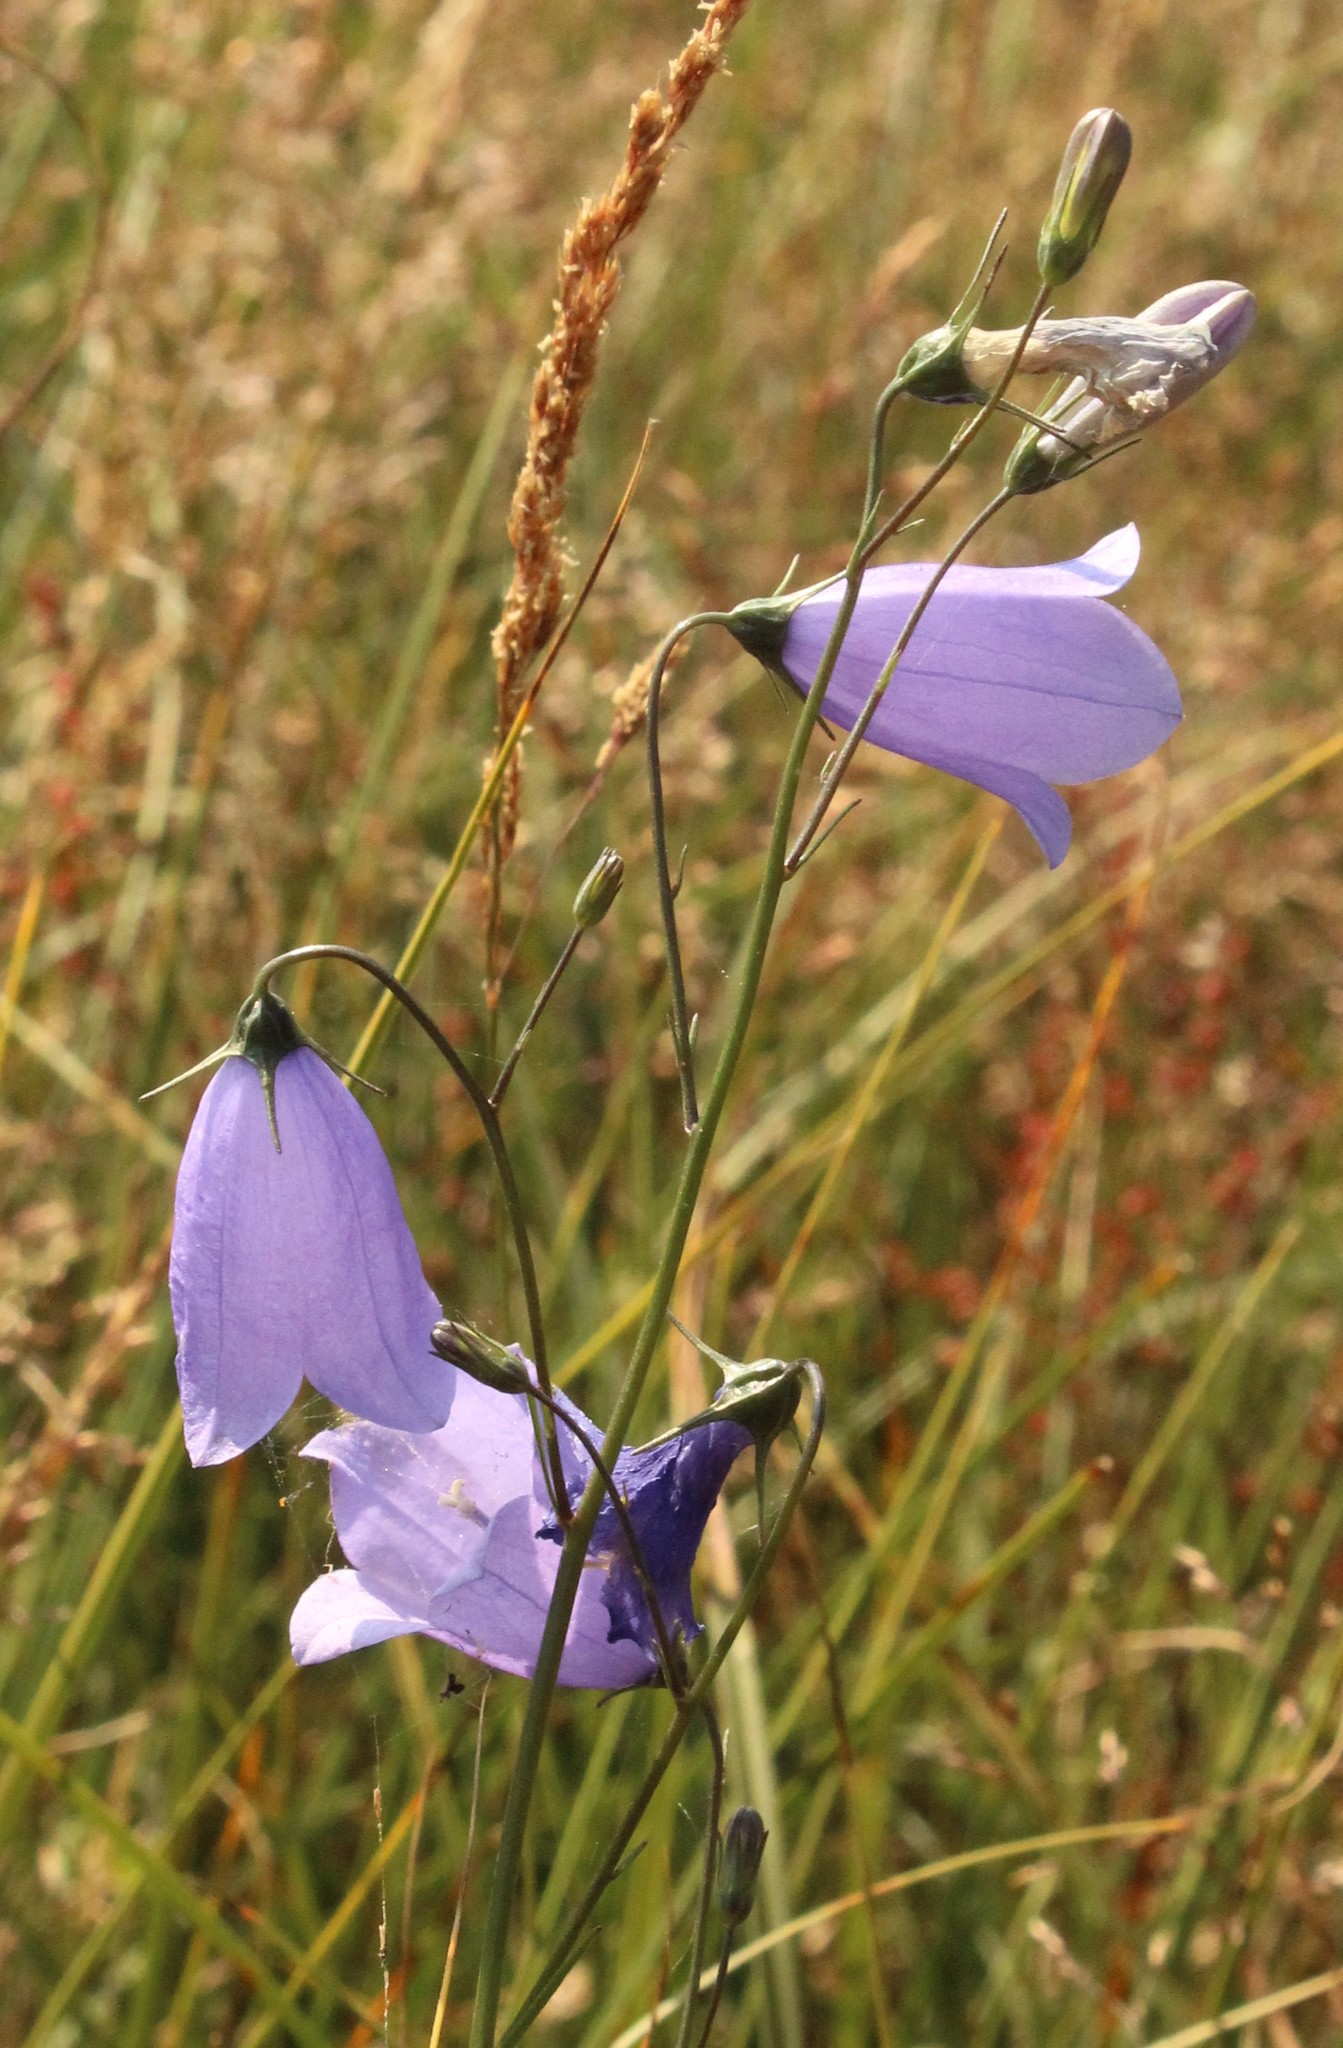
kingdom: Plantae
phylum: Tracheophyta
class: Magnoliopsida
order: Asterales
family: Campanulaceae
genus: Campanula
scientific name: Campanula rotundifolia
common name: Harebell
